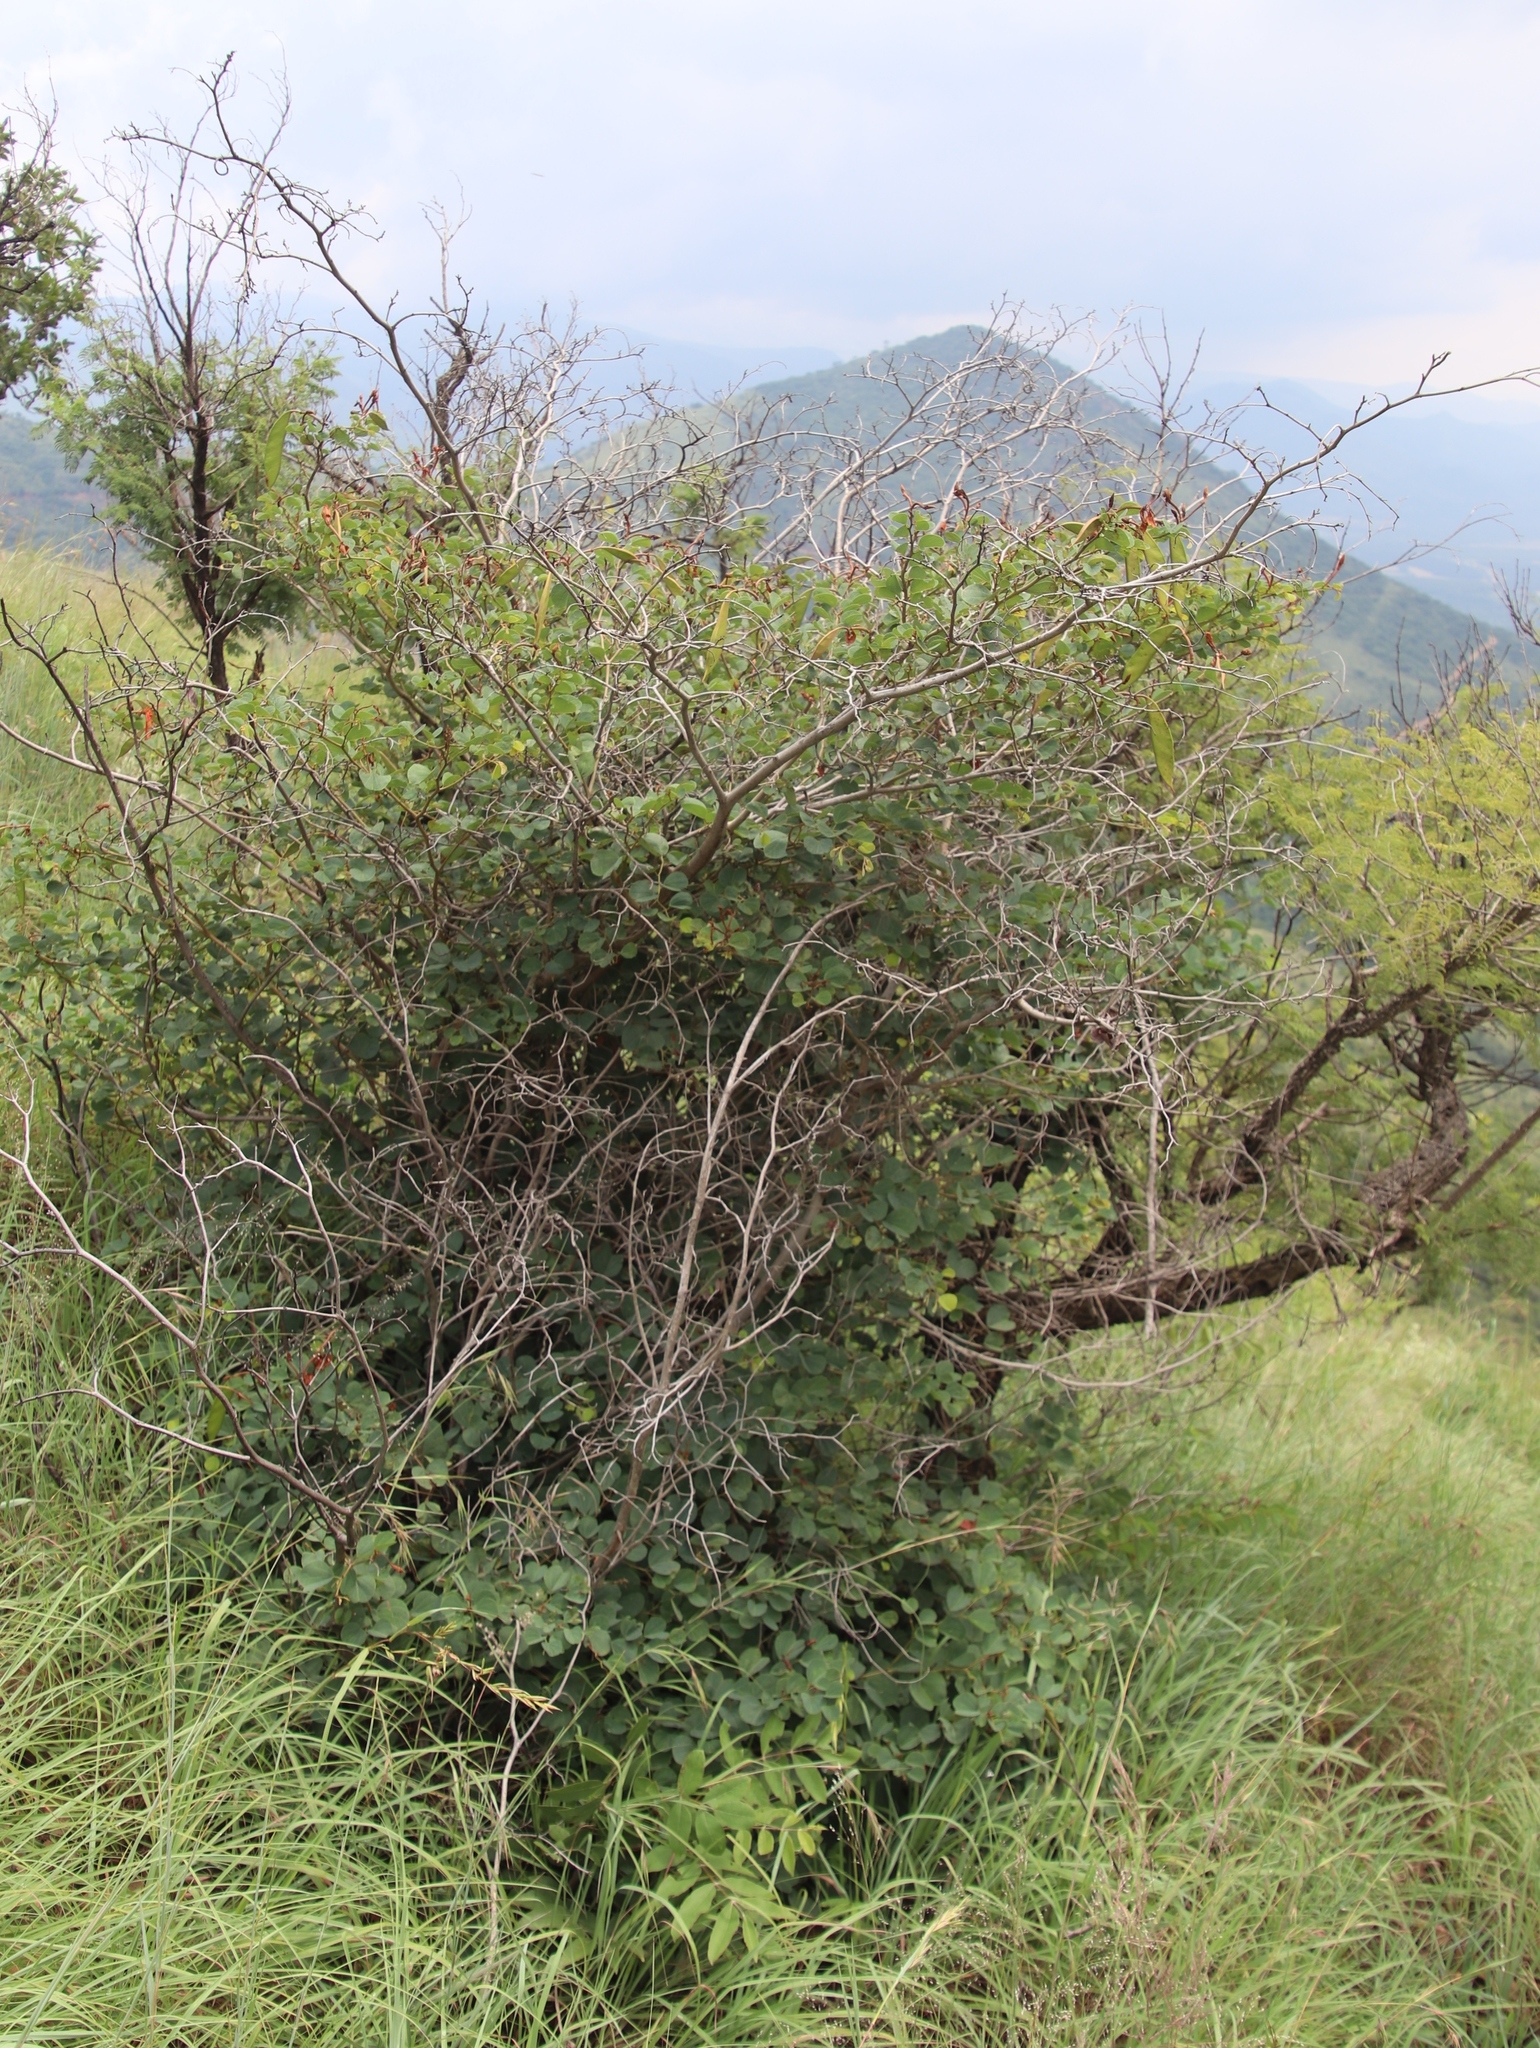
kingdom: Plantae
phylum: Tracheophyta
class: Magnoliopsida
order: Fabales
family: Fabaceae
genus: Bauhinia
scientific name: Bauhinia galpinii
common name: African plume
